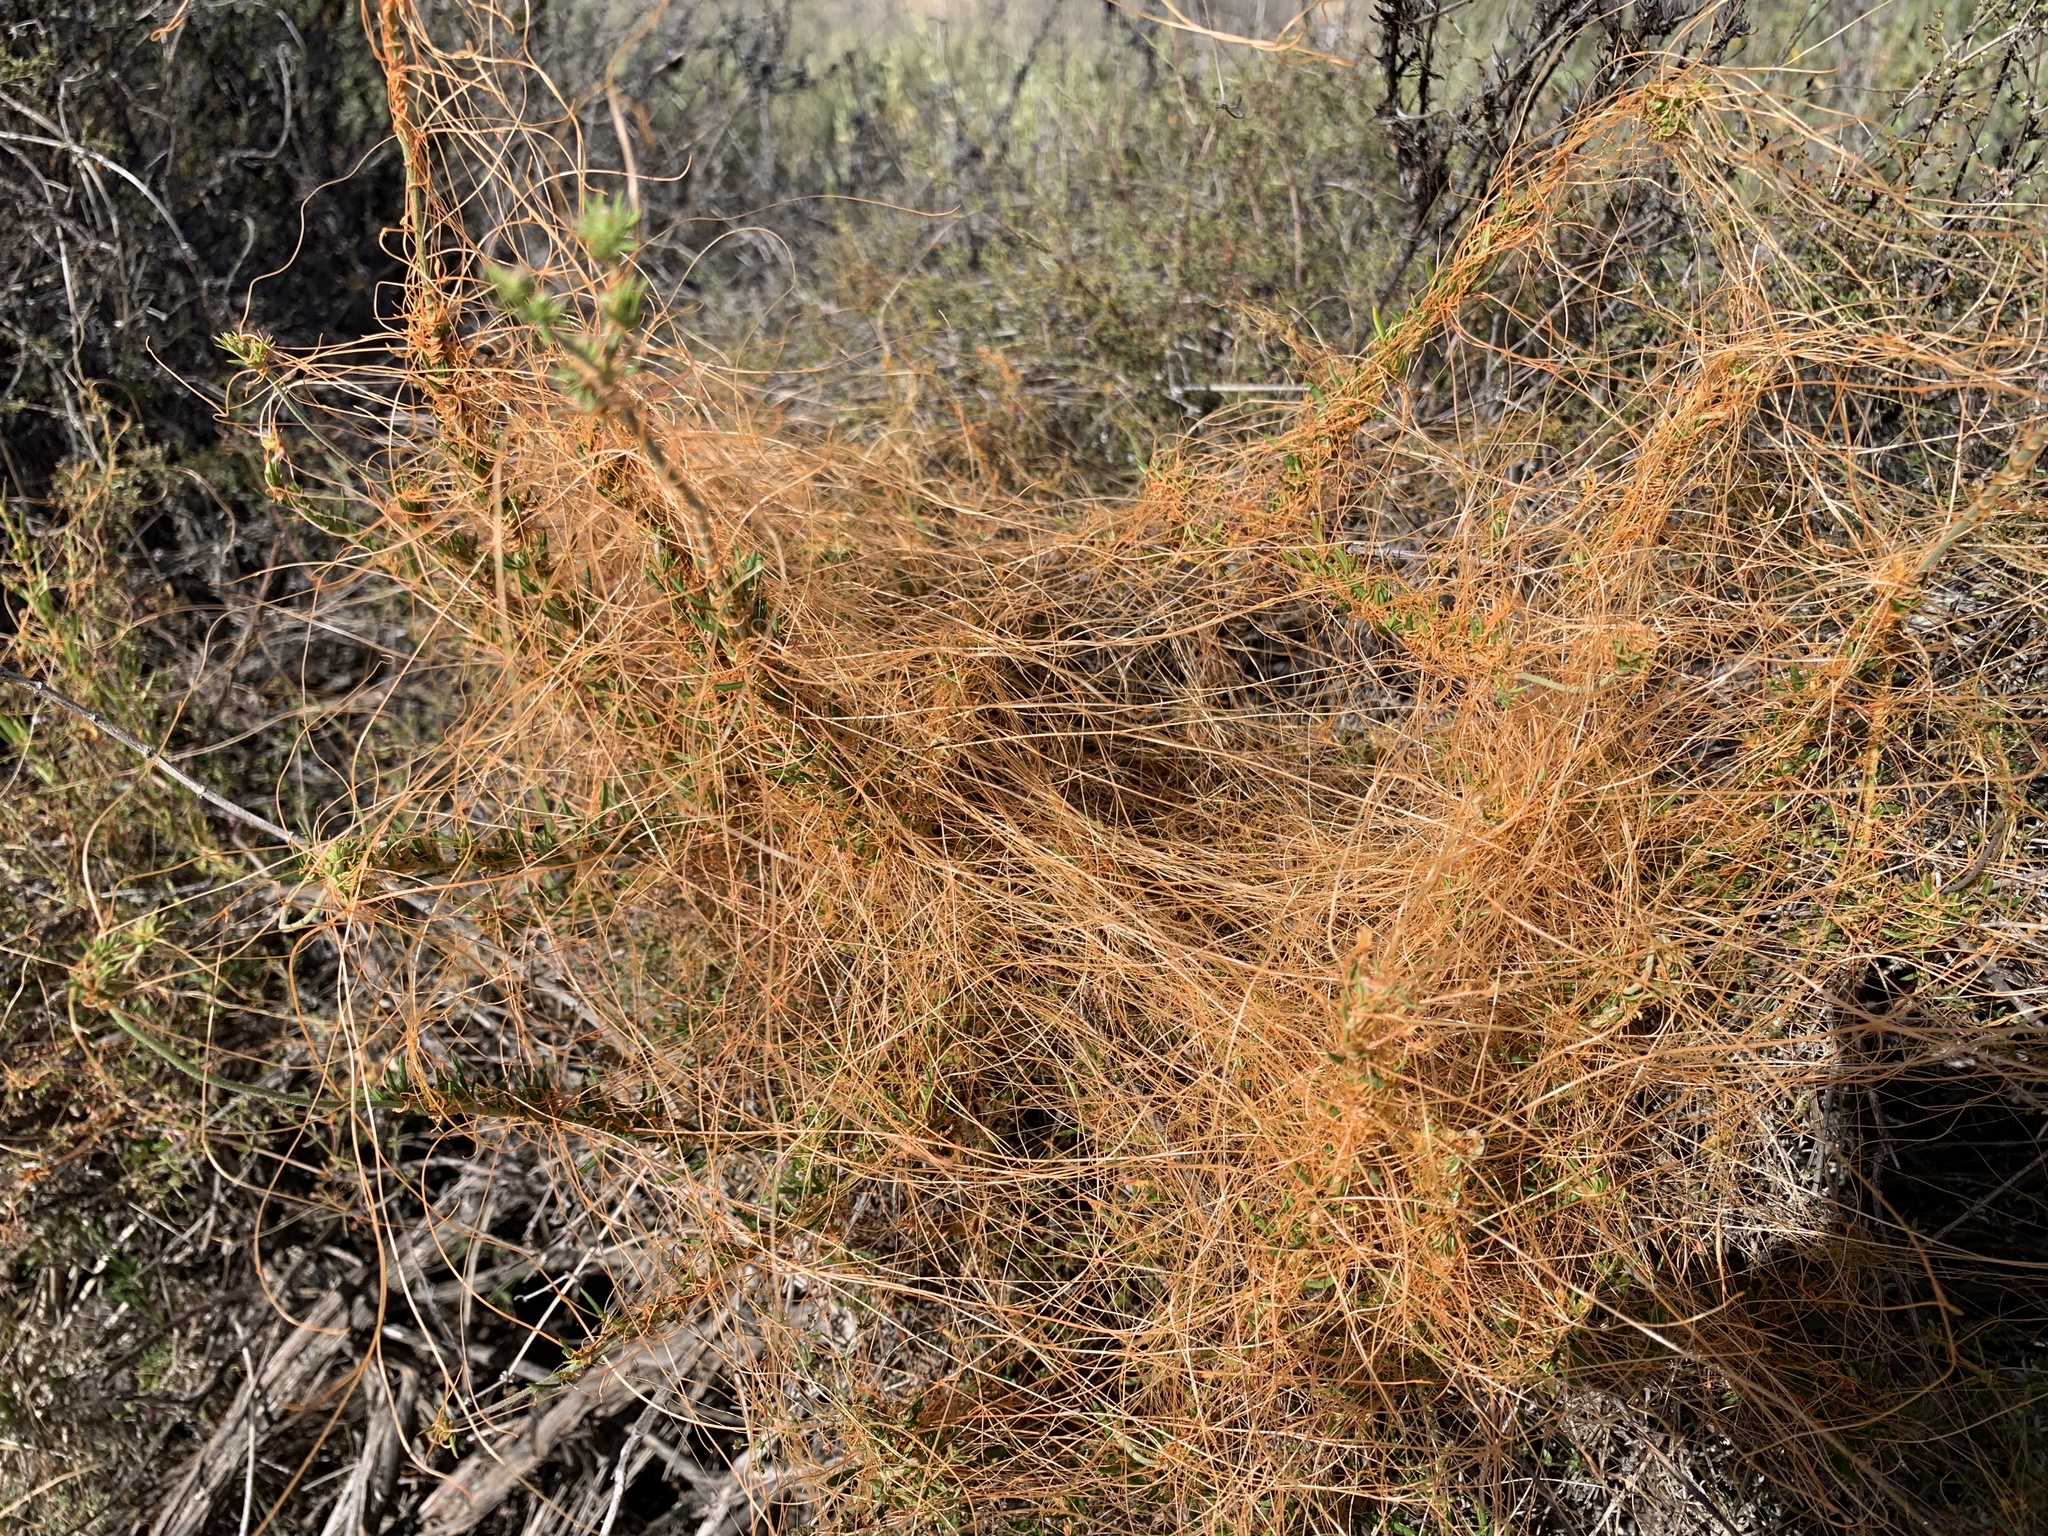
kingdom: Plantae
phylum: Tracheophyta
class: Magnoliopsida
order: Solanales
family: Convolvulaceae
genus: Cuscuta
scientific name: Cuscuta californica
